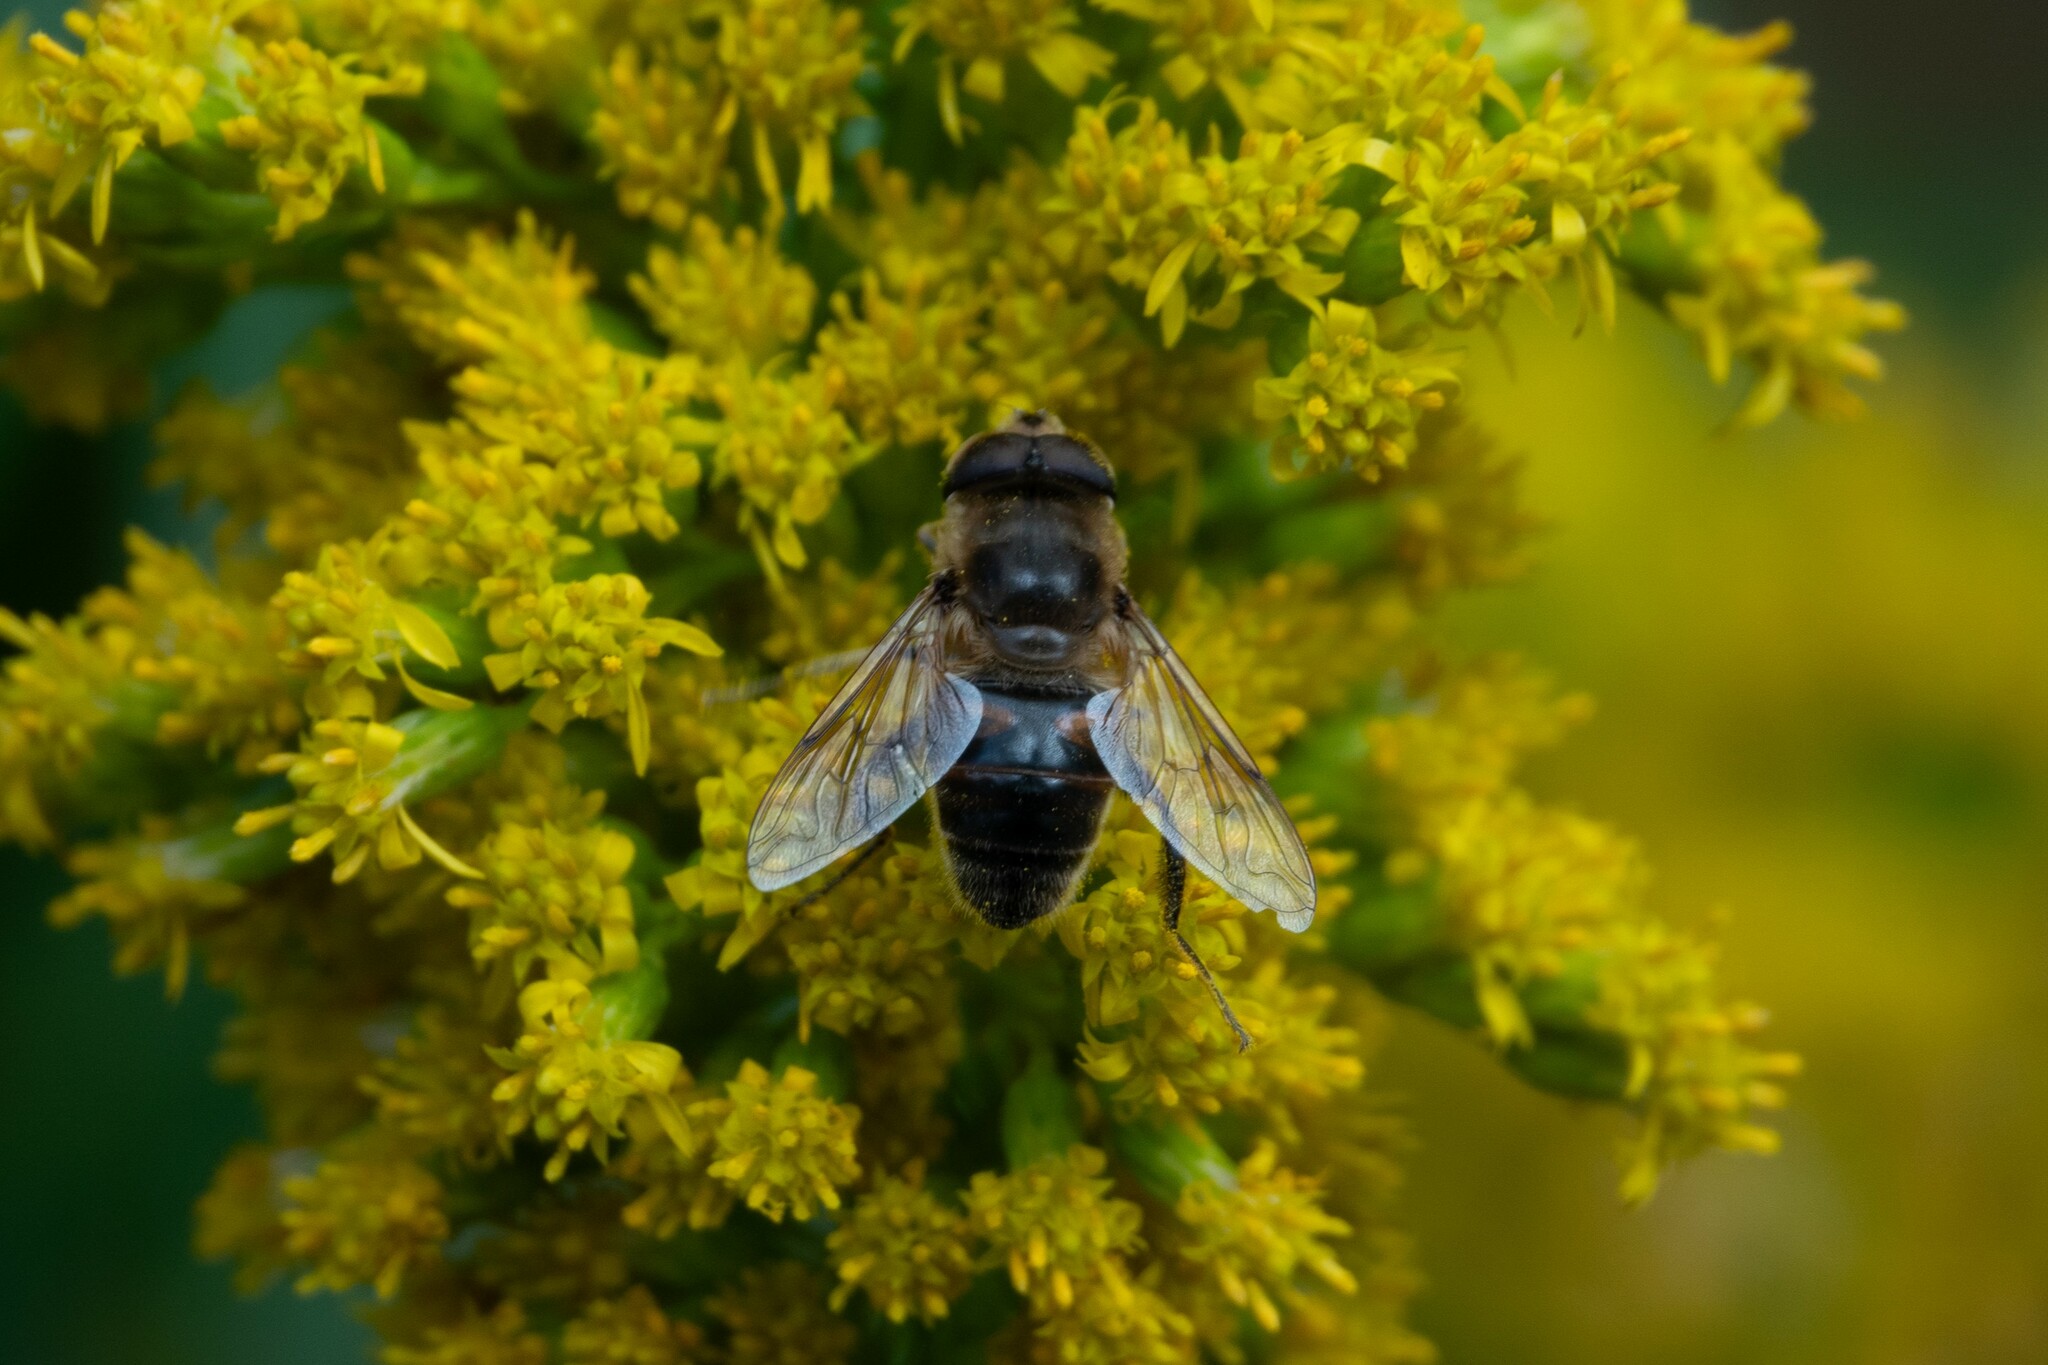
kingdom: Animalia
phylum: Arthropoda
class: Insecta
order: Diptera
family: Syrphidae
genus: Eristalis
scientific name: Eristalis tenax
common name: Drone fly
